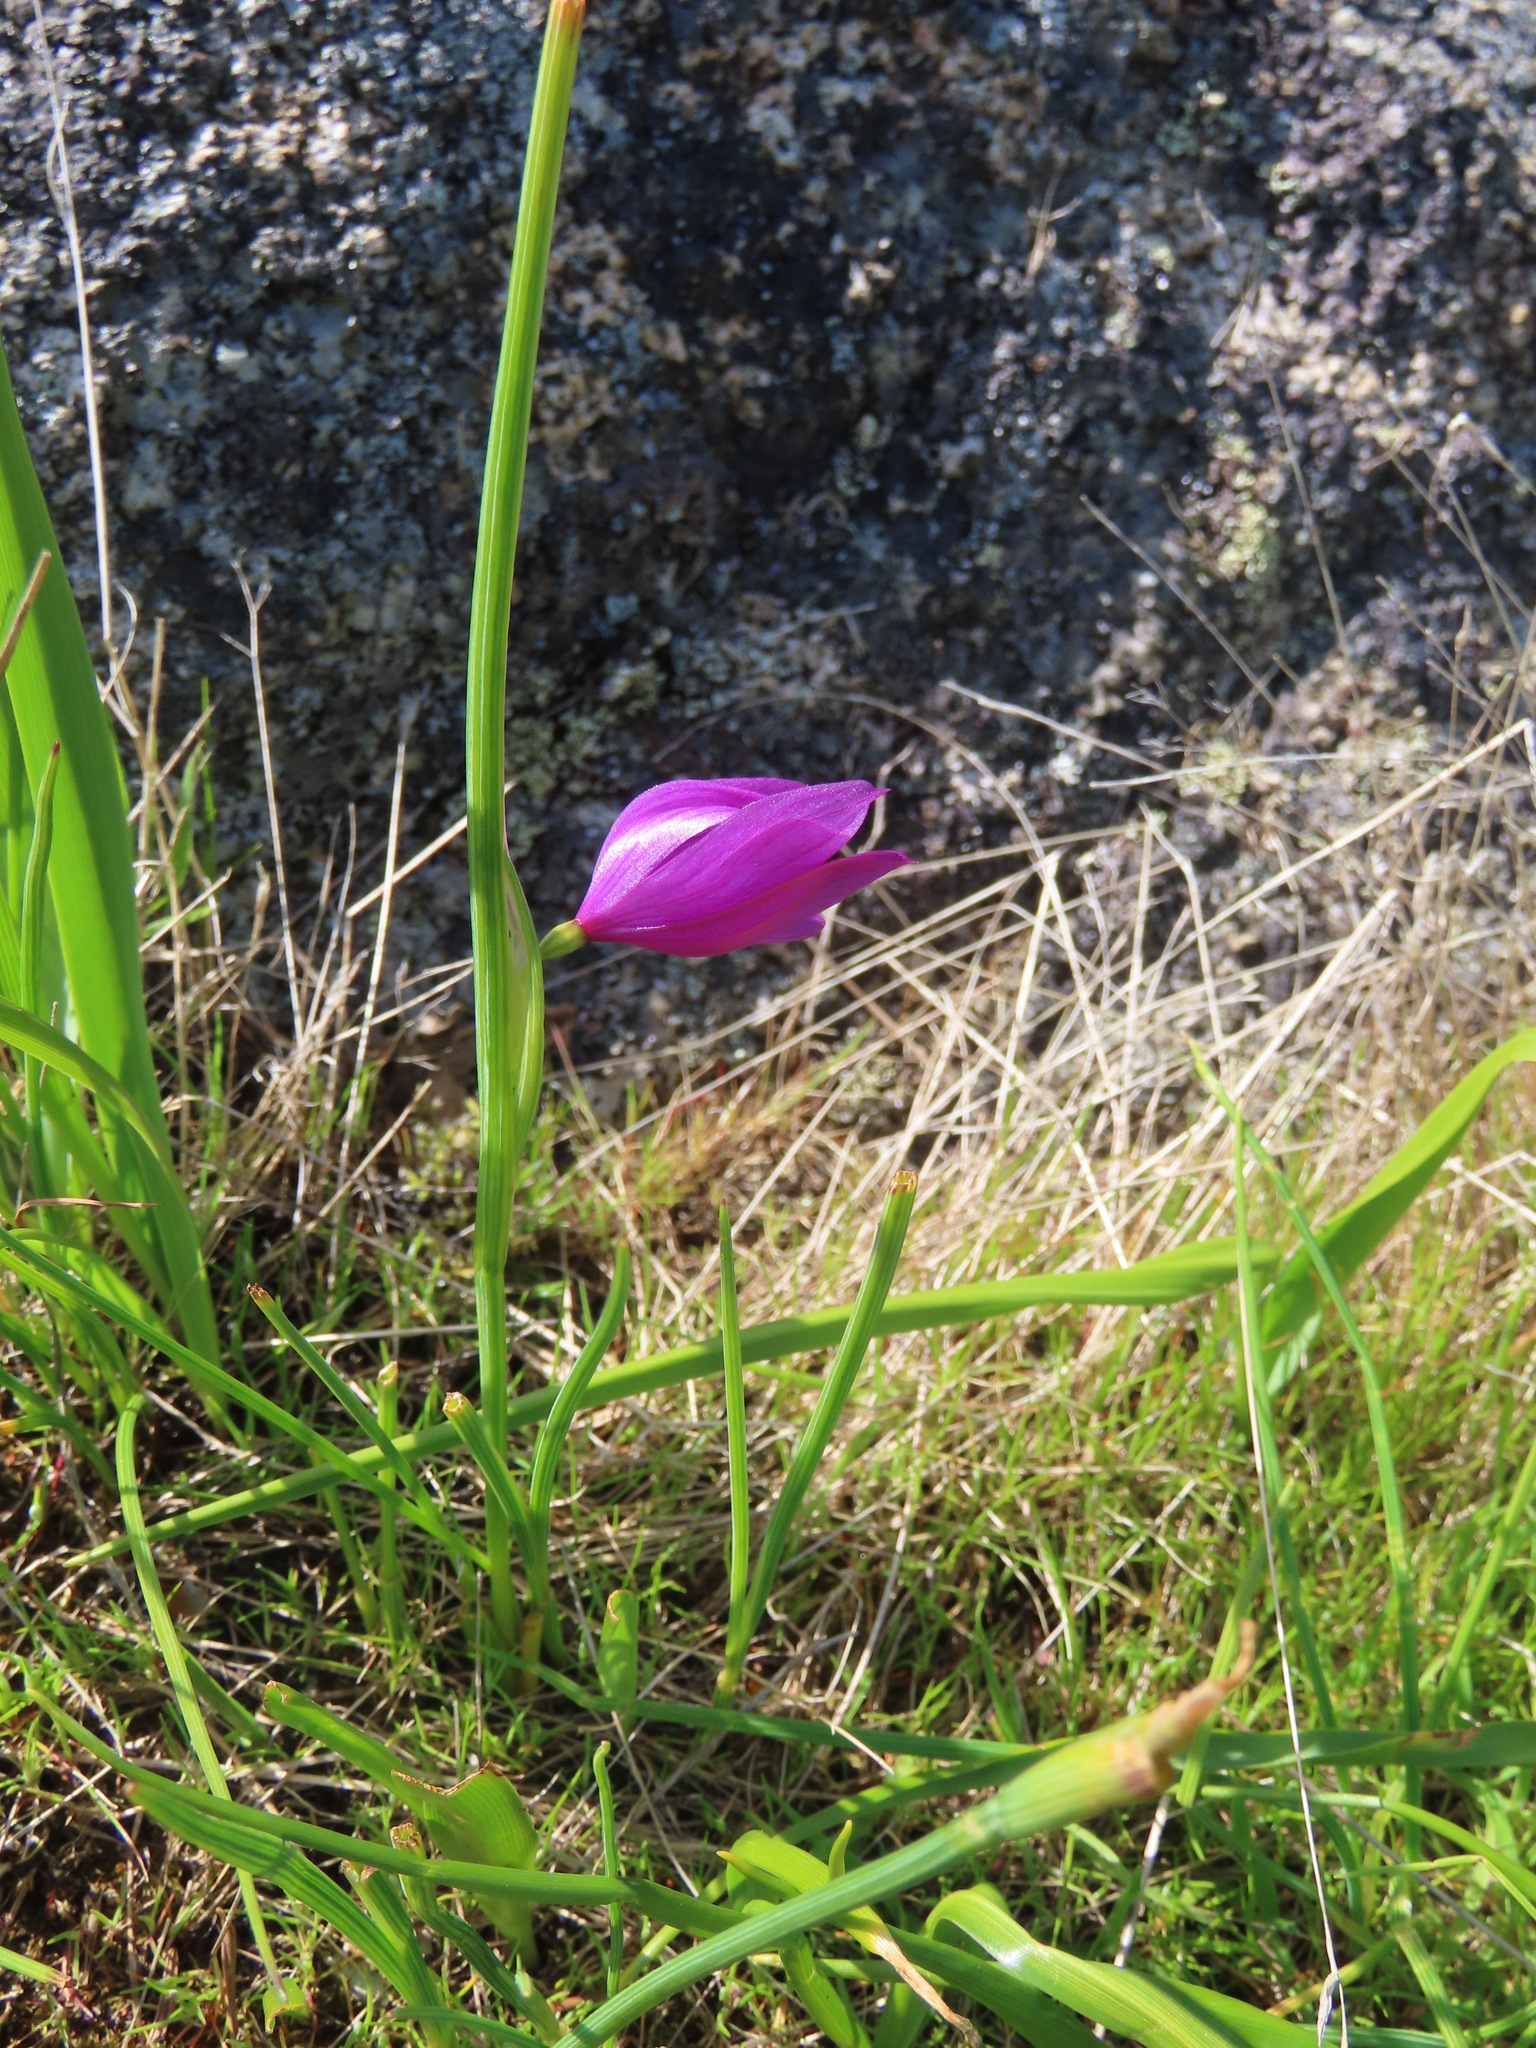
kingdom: Plantae
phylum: Tracheophyta
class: Liliopsida
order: Asparagales
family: Iridaceae
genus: Olsynium
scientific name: Olsynium douglasii
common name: Douglas' grasswidow
